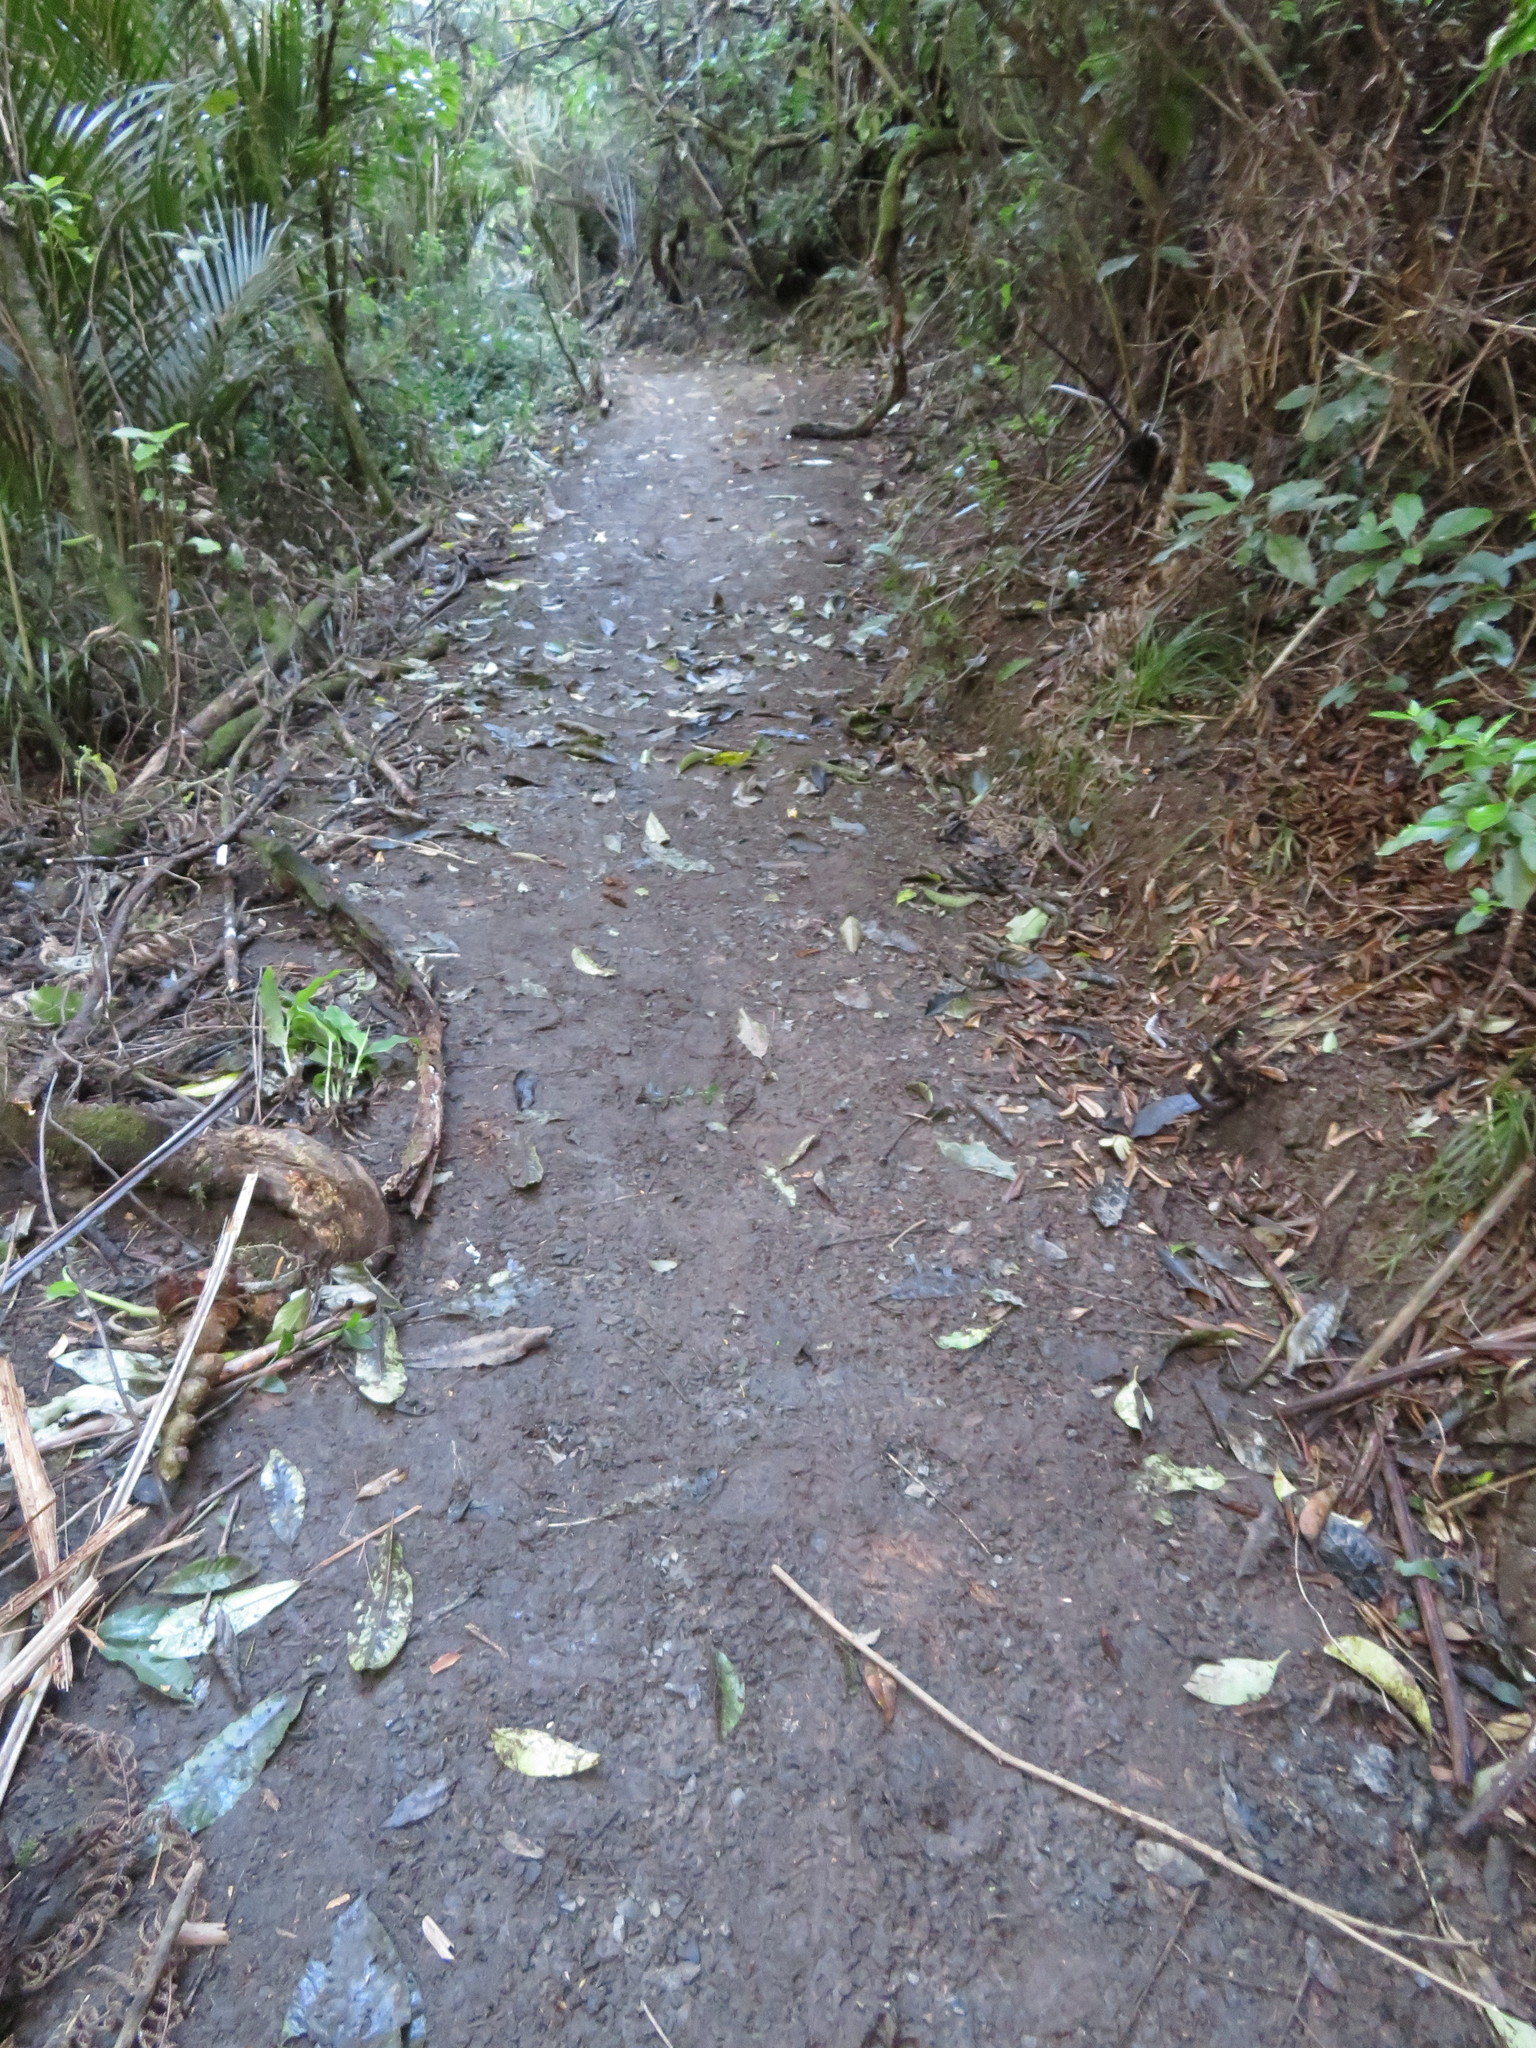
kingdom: Plantae
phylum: Tracheophyta
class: Liliopsida
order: Zingiberales
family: Zingiberaceae
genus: Hedychium
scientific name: Hedychium gardnerianum
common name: Himalayan ginger
